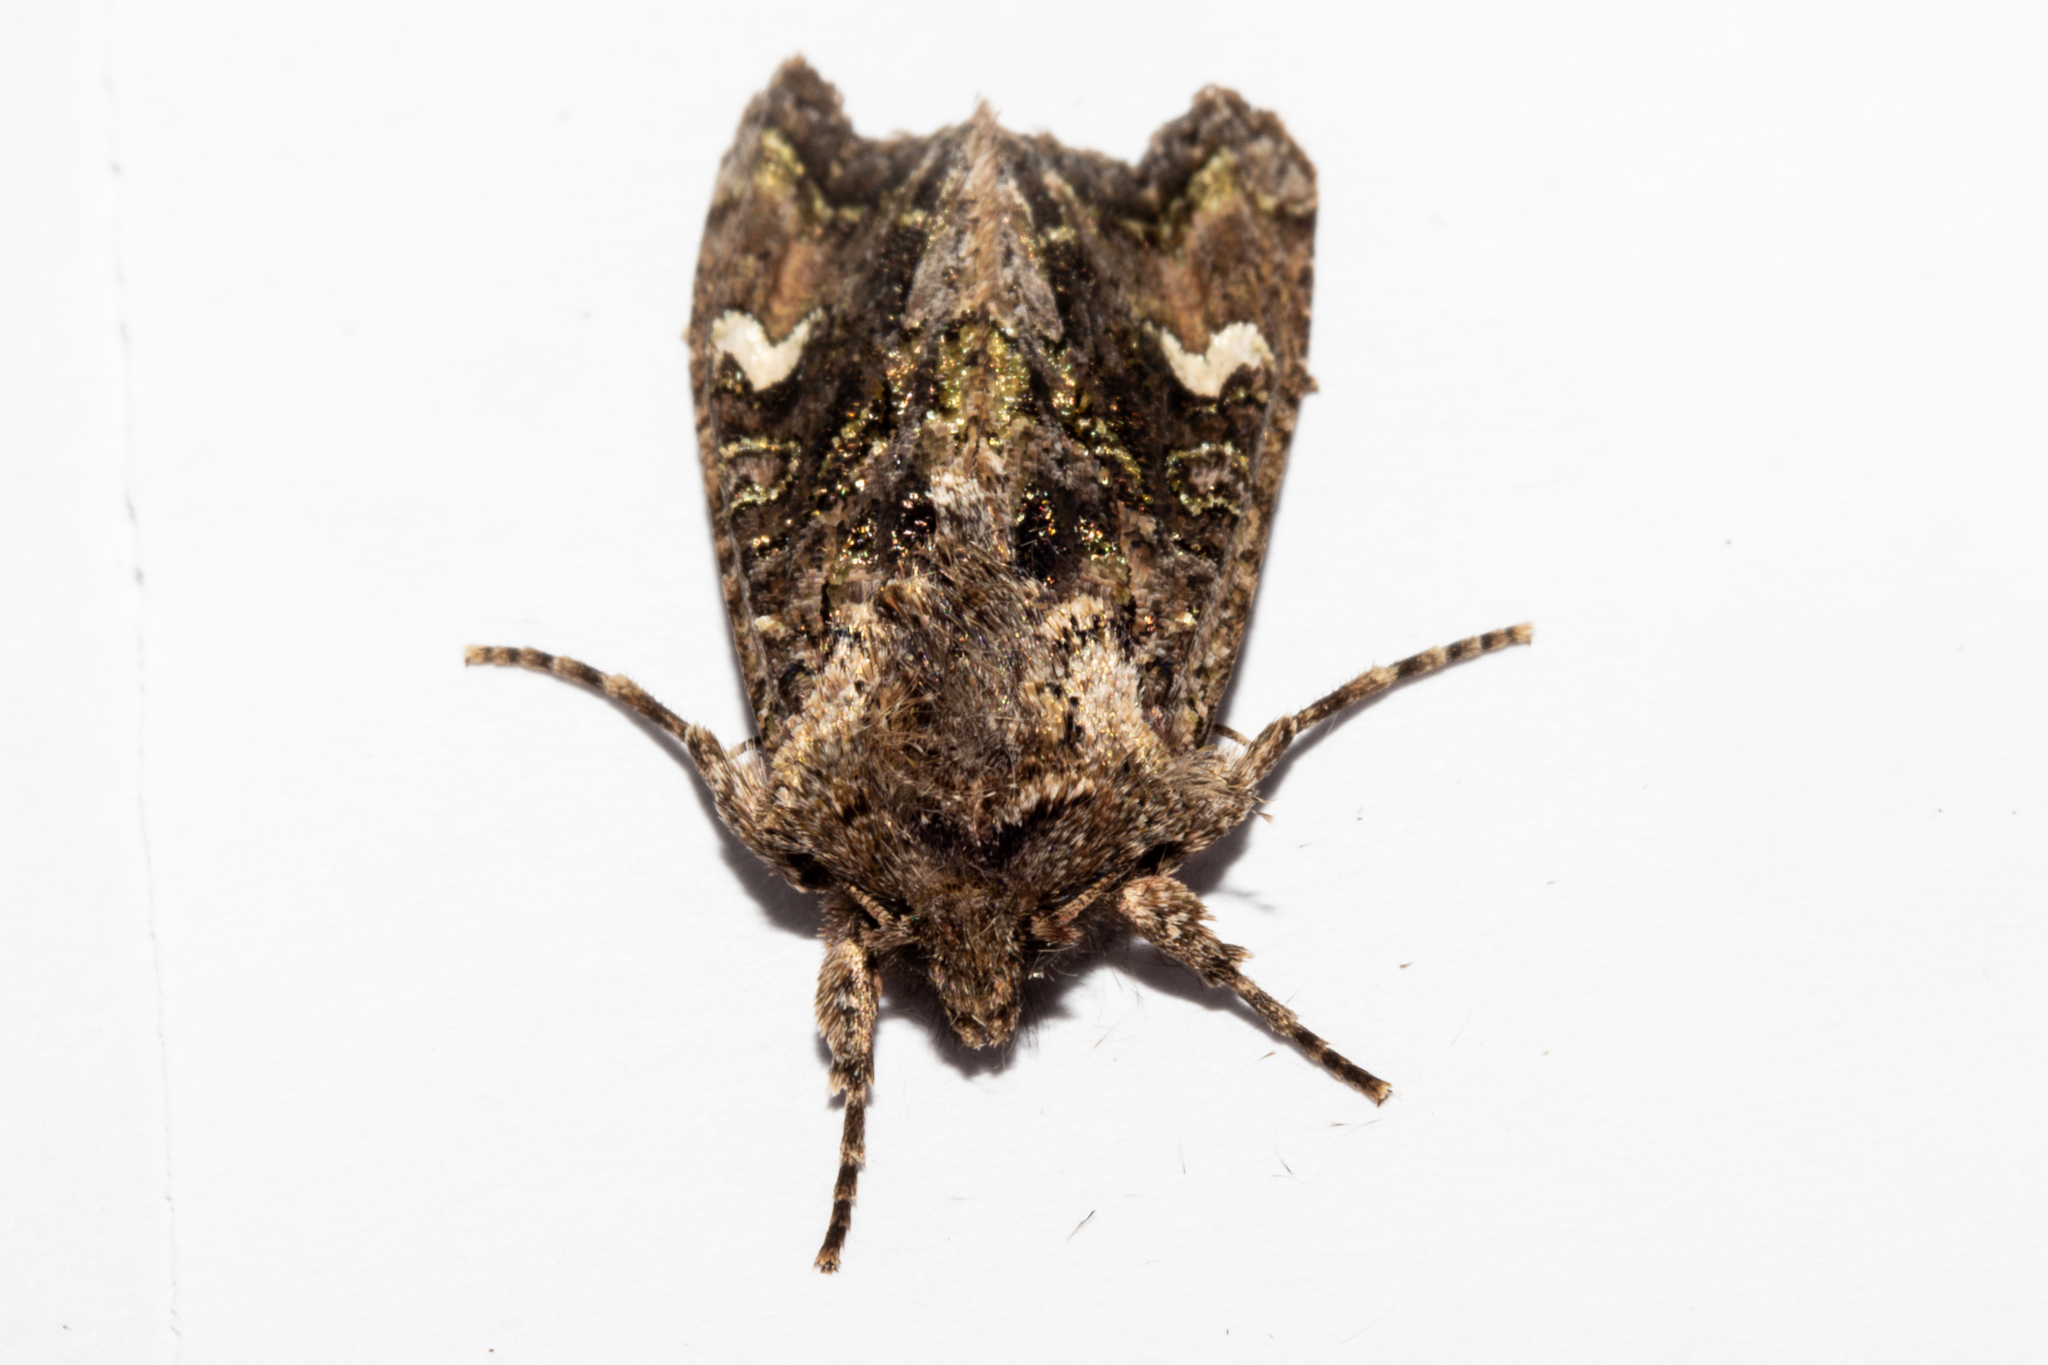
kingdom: Animalia
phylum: Arthropoda
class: Insecta
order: Lepidoptera
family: Noctuidae
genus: Ichneutica
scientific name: Ichneutica insignis
